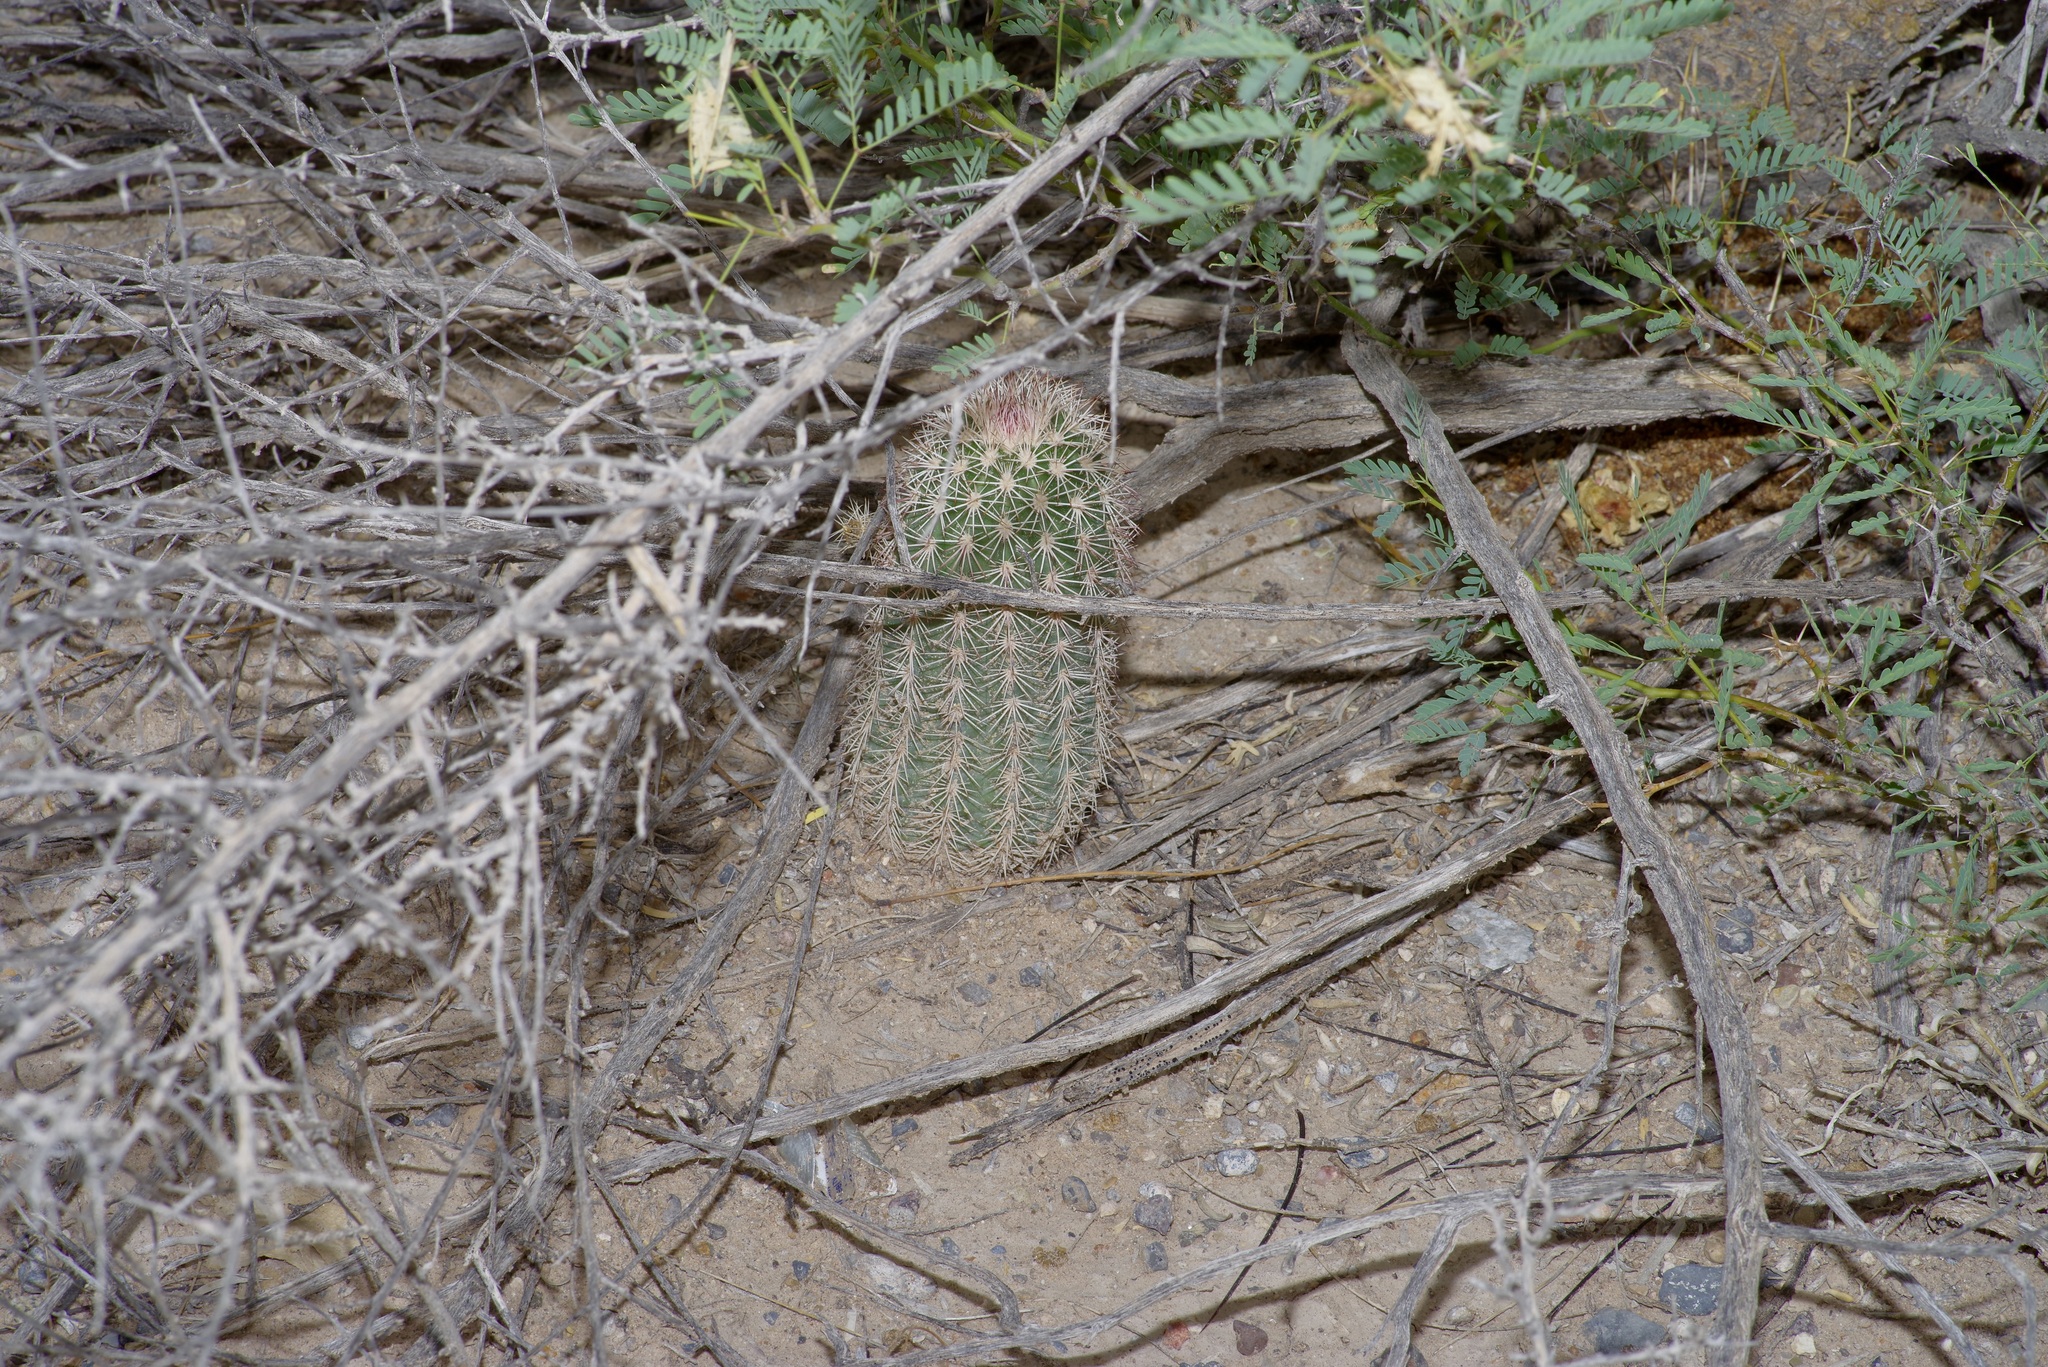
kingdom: Plantae
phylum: Tracheophyta
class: Magnoliopsida
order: Caryophyllales
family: Cactaceae
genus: Echinocereus
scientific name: Echinocereus dasyacanthus
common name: Spiny hedgehog cactus
